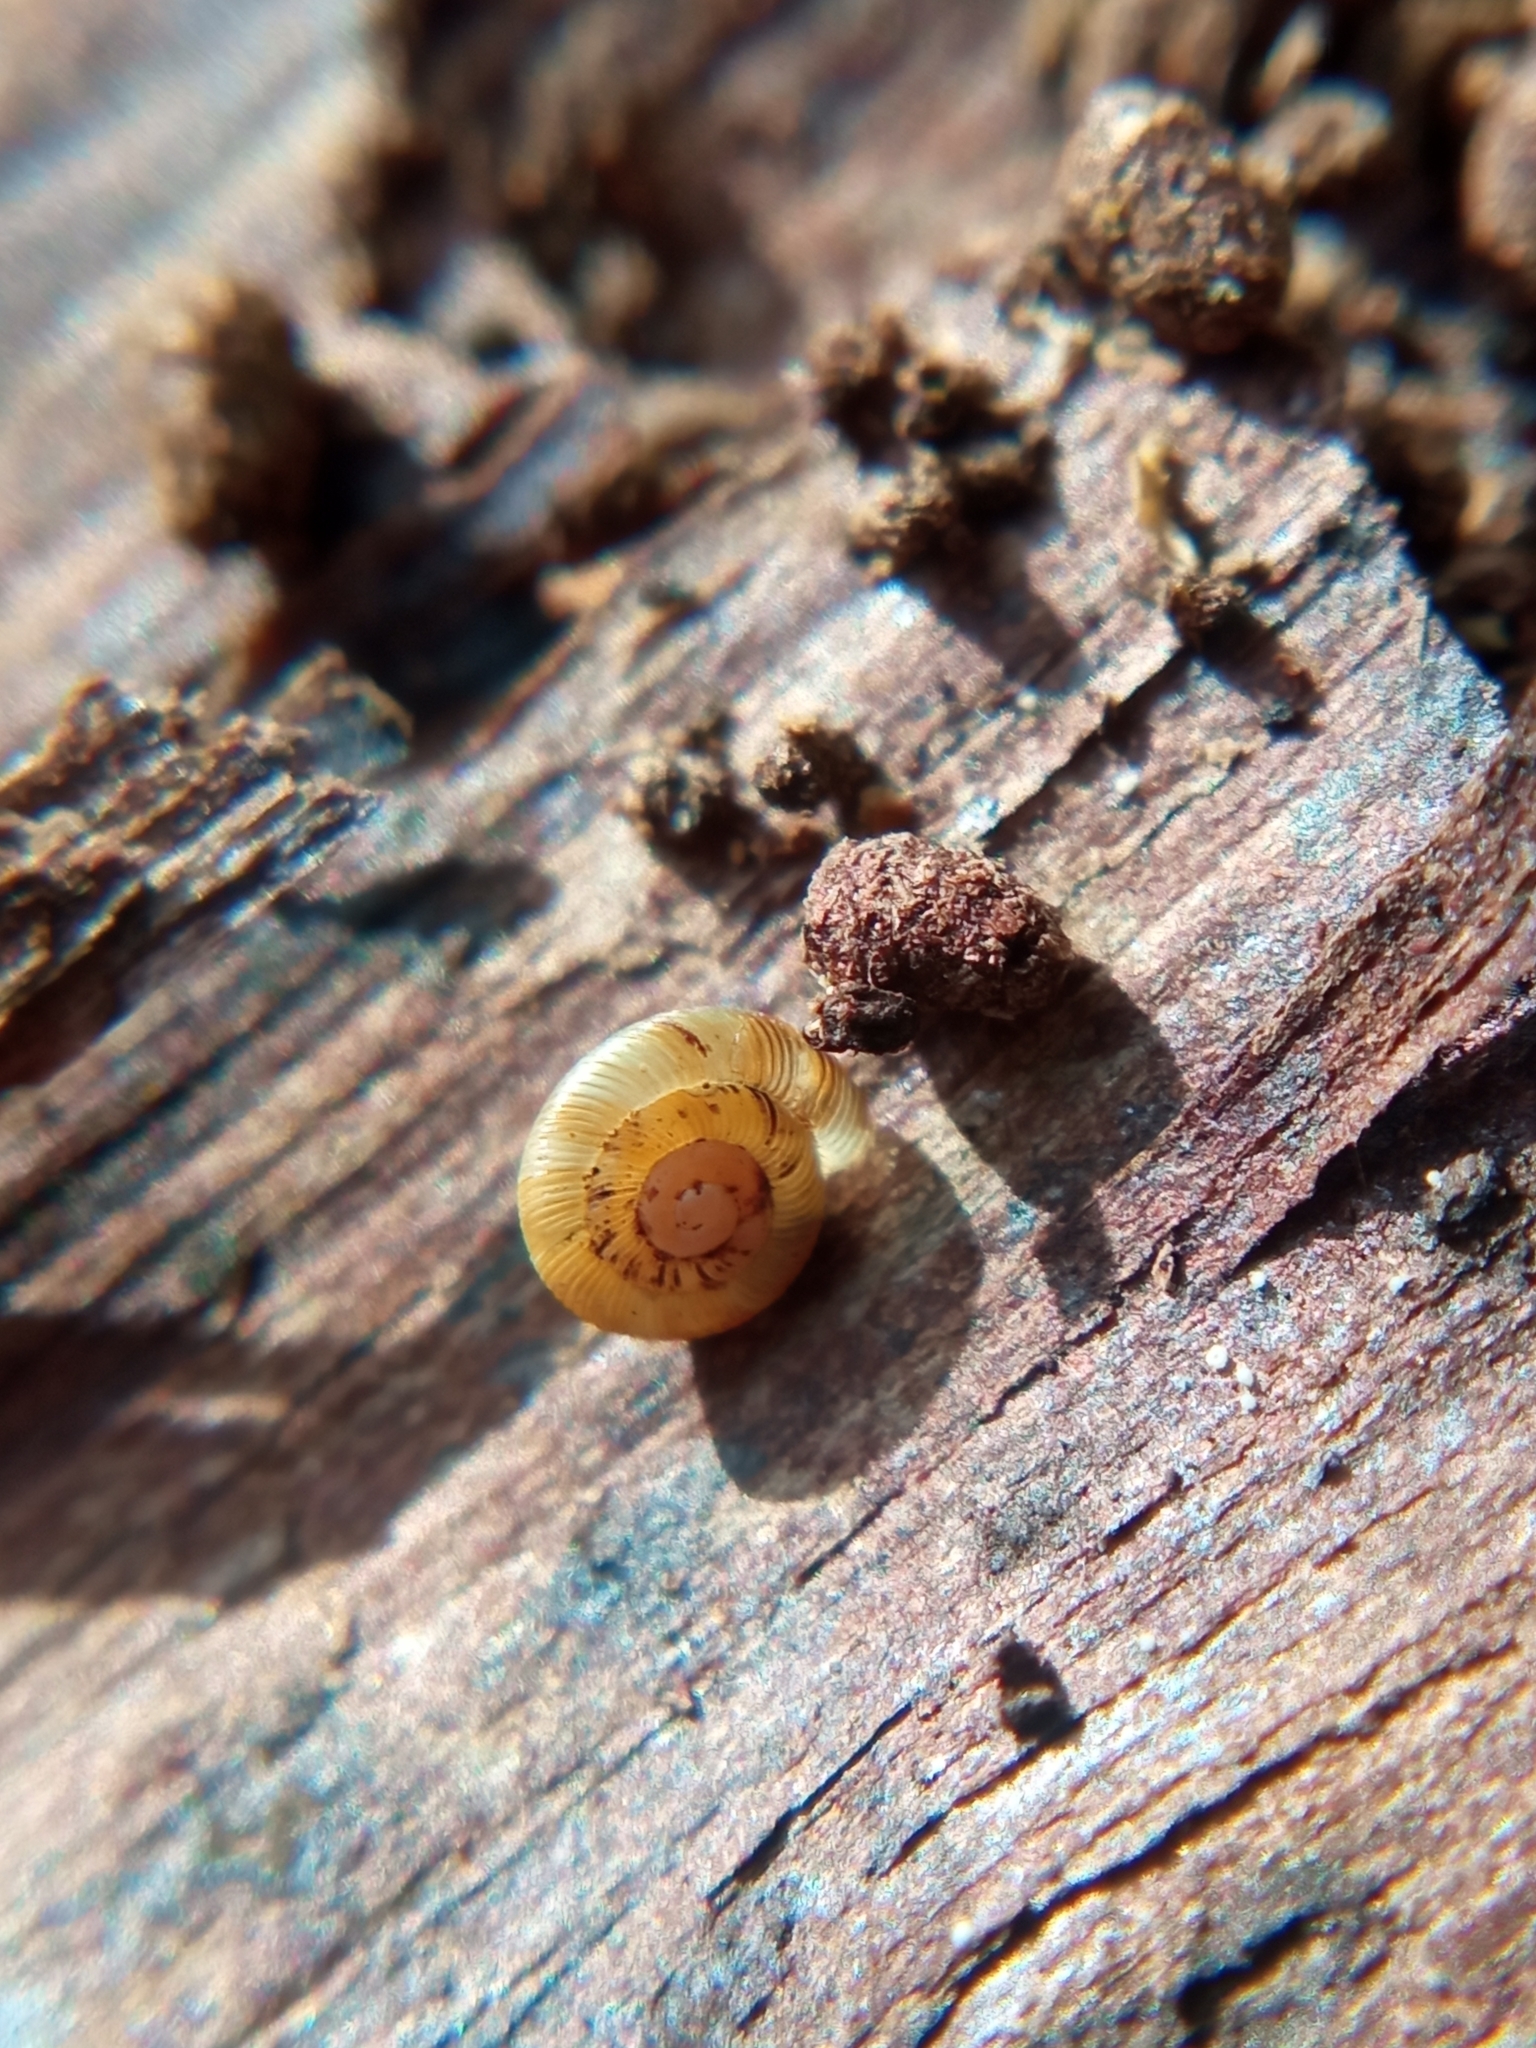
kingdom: Animalia
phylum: Mollusca
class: Gastropoda
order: Stylommatophora
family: Discidae
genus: Discus
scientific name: Discus rotundatus
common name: Rounded snail
